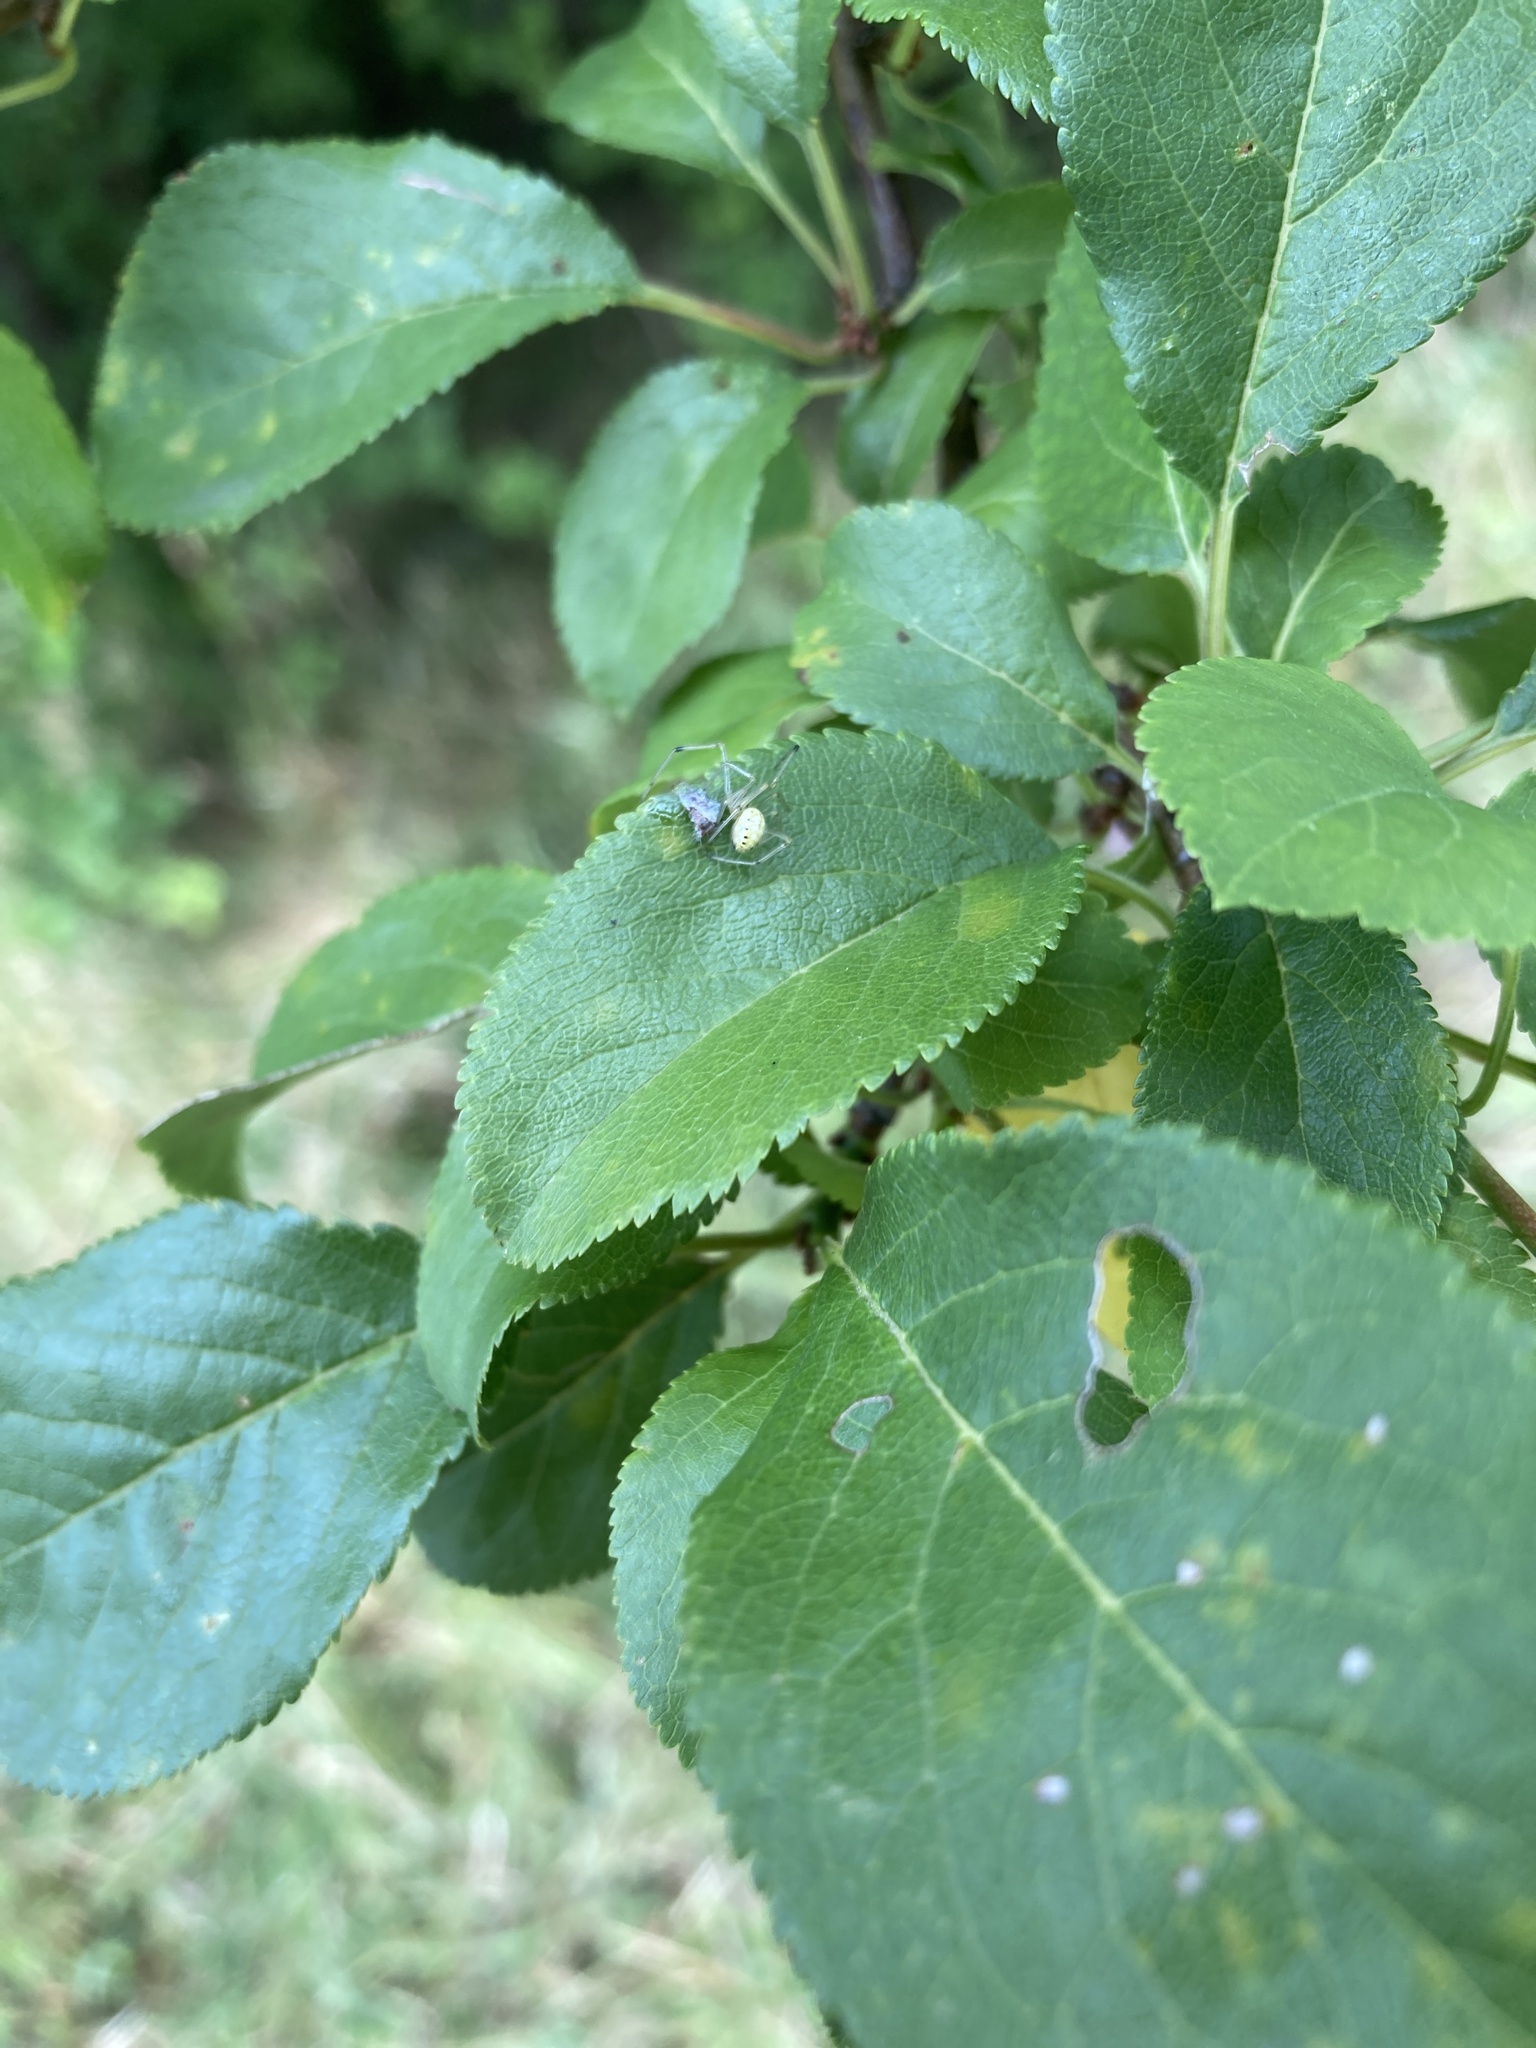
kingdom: Animalia
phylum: Arthropoda
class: Arachnida
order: Araneae
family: Theridiidae
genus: Enoplognatha
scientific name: Enoplognatha
